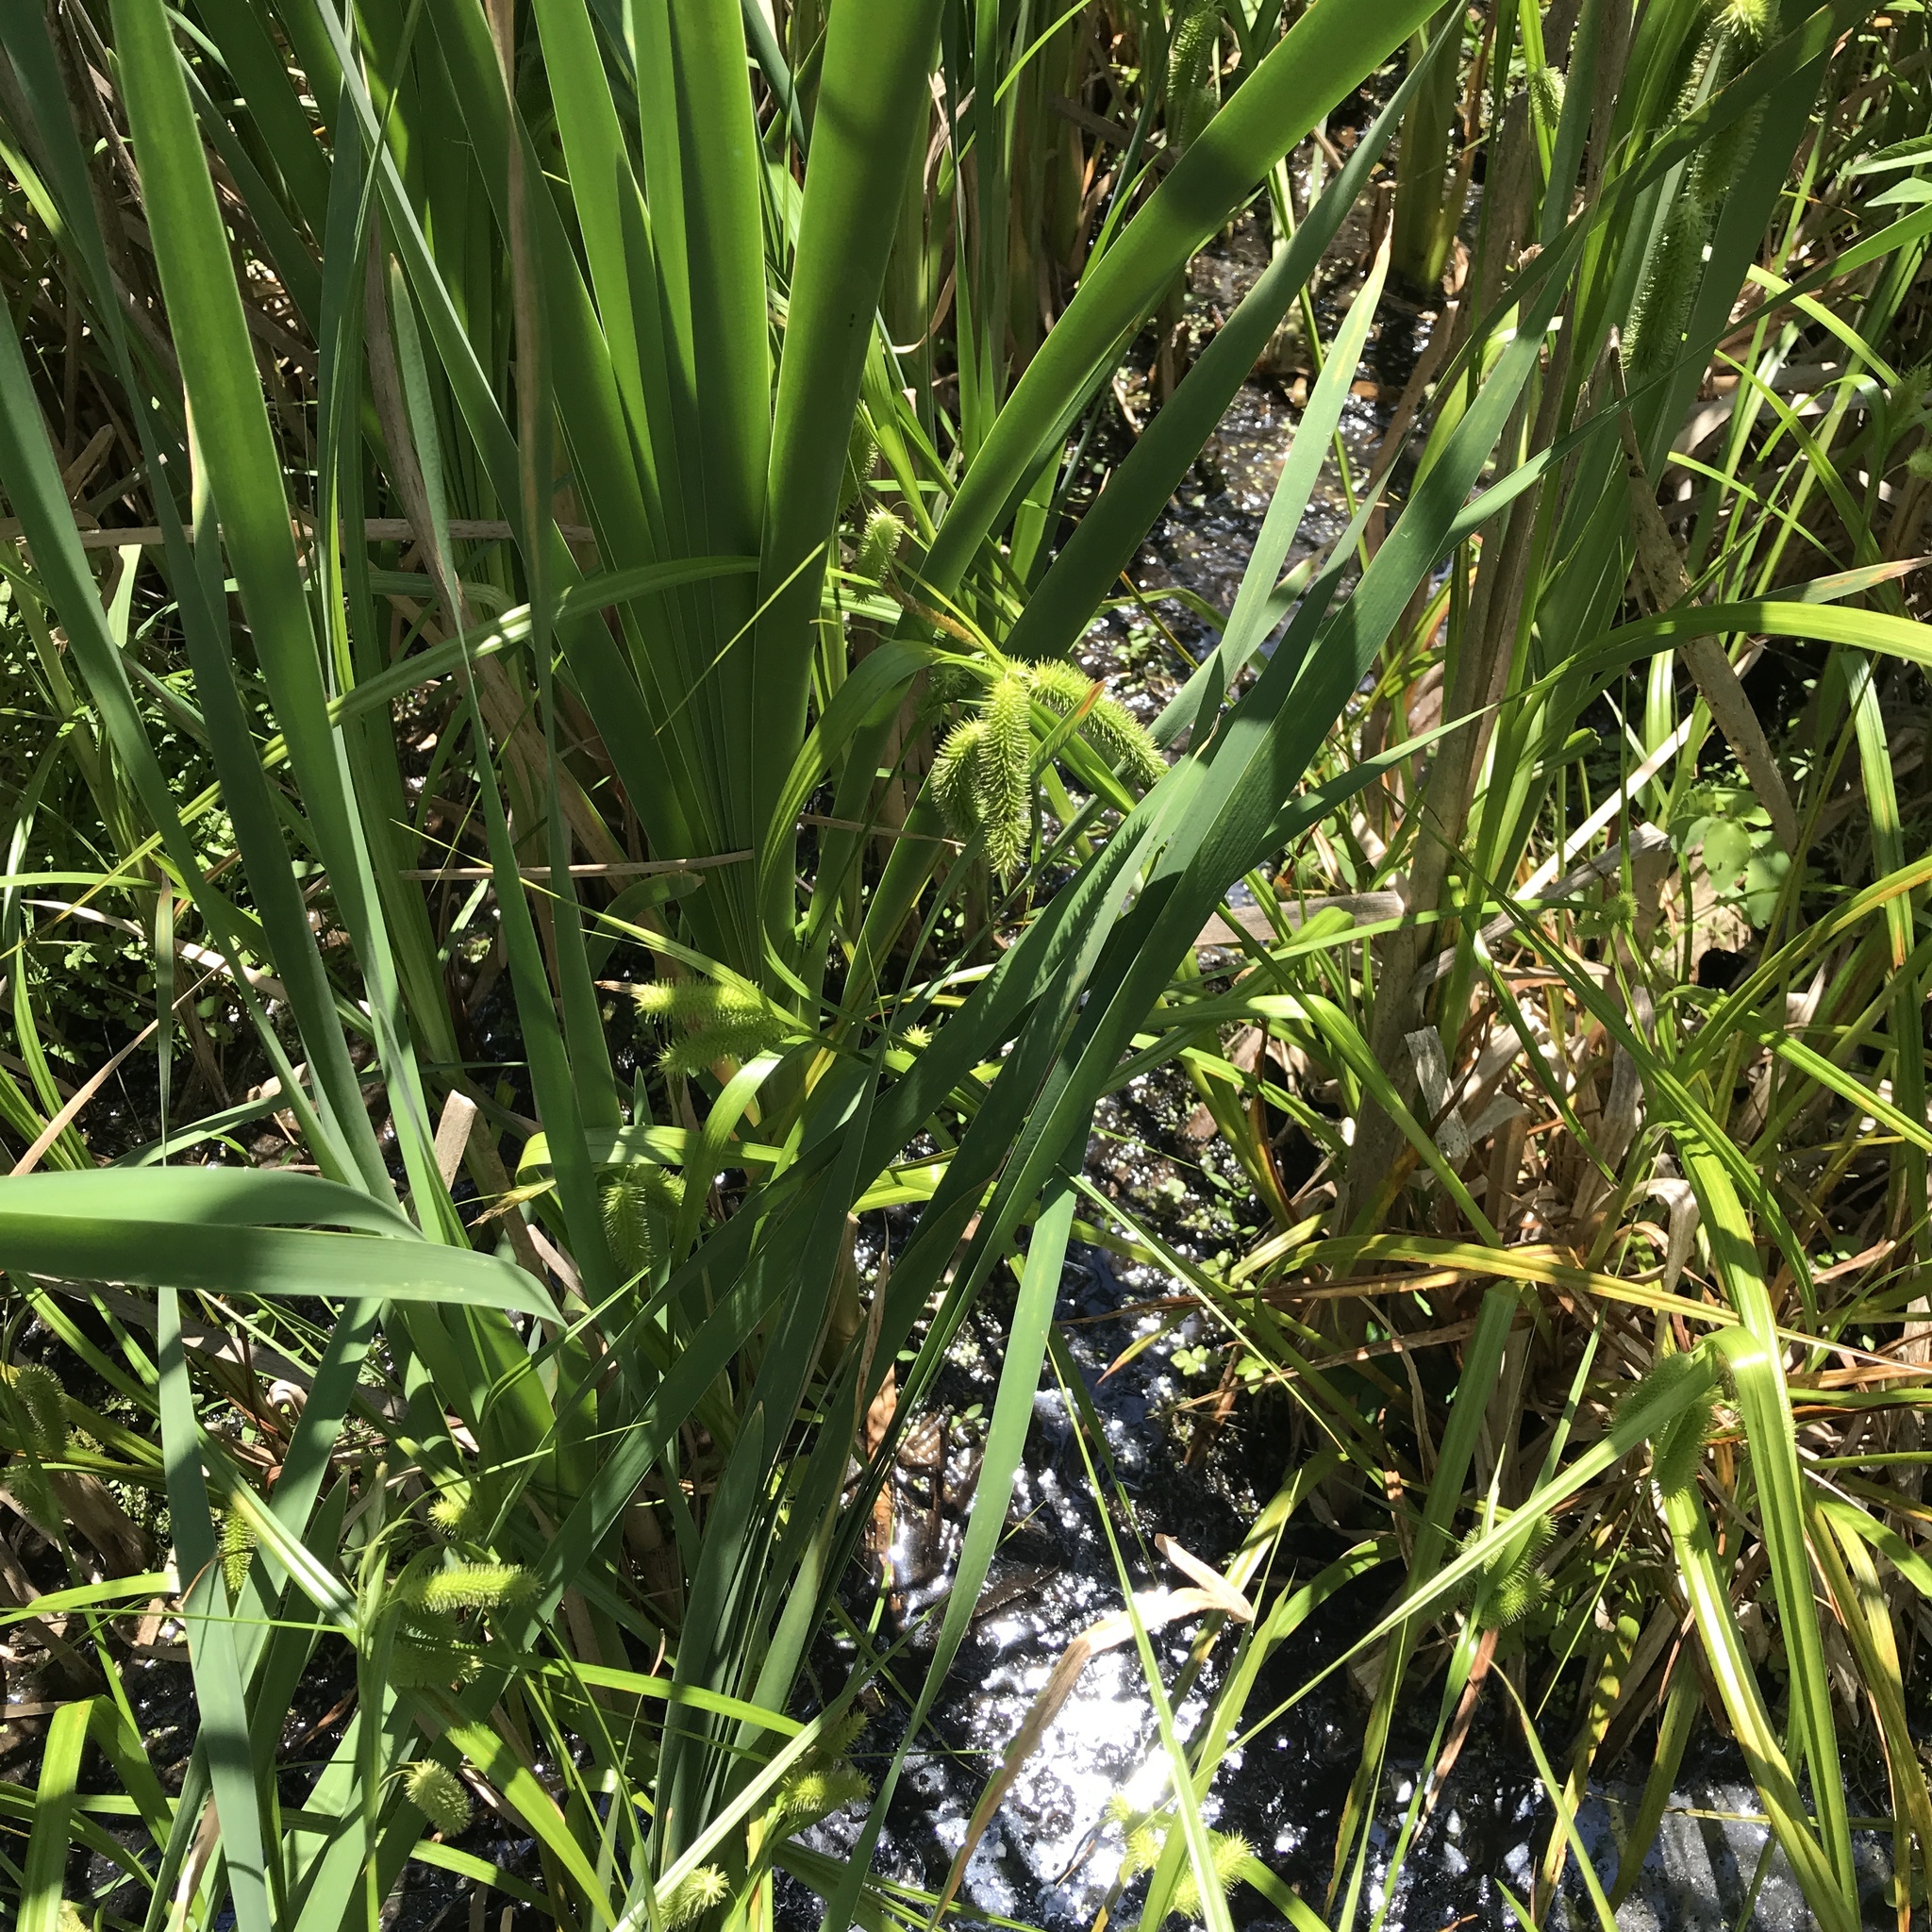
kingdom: Plantae
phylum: Tracheophyta
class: Liliopsida
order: Poales
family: Cyperaceae
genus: Carex
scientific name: Carex comosa
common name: Bristly sedge
